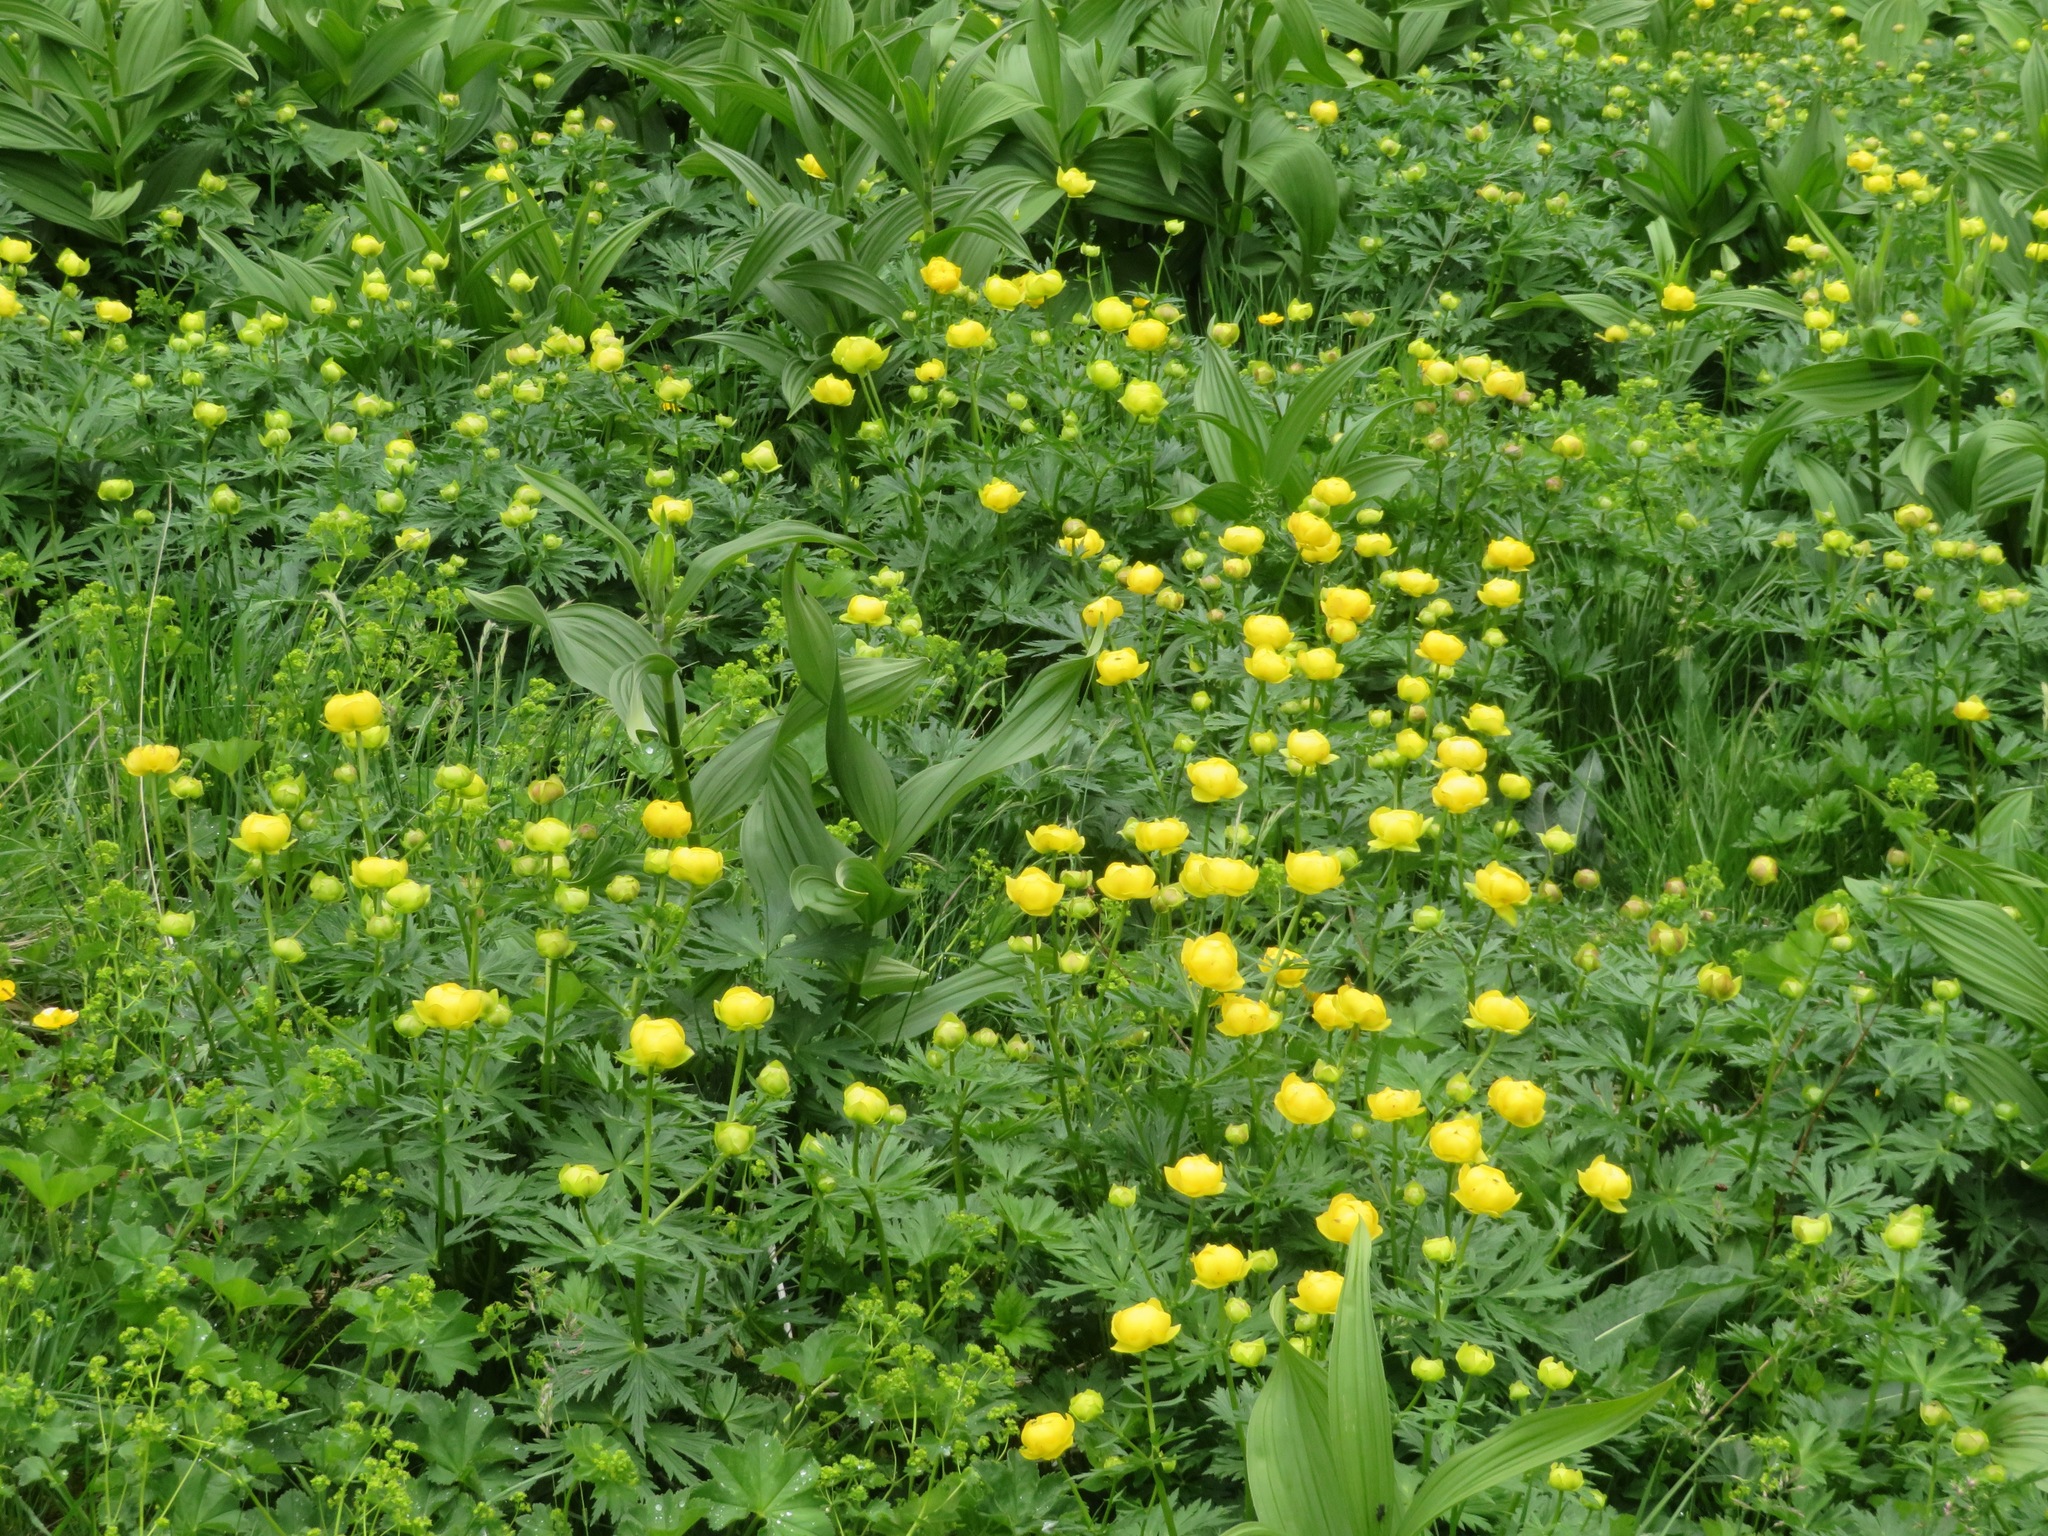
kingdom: Plantae
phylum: Tracheophyta
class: Magnoliopsida
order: Ranunculales
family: Ranunculaceae
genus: Trollius
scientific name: Trollius europaeus
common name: European globeflower
